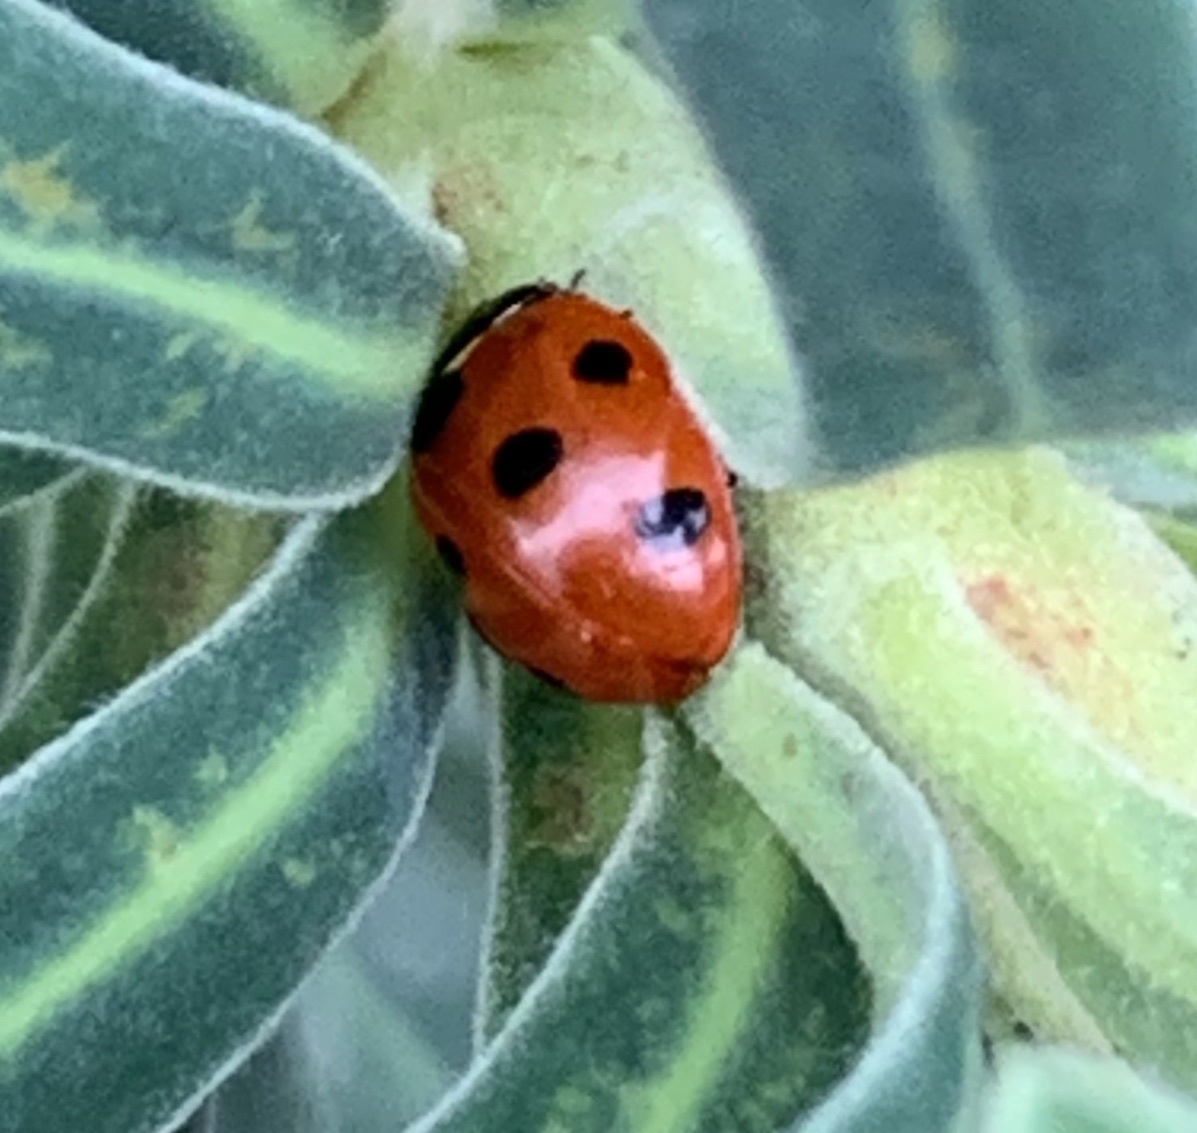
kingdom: Animalia
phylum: Arthropoda
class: Insecta
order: Coleoptera
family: Coccinellidae
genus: Coccinella
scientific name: Coccinella septempunctata
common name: Sevenspotted lady beetle
